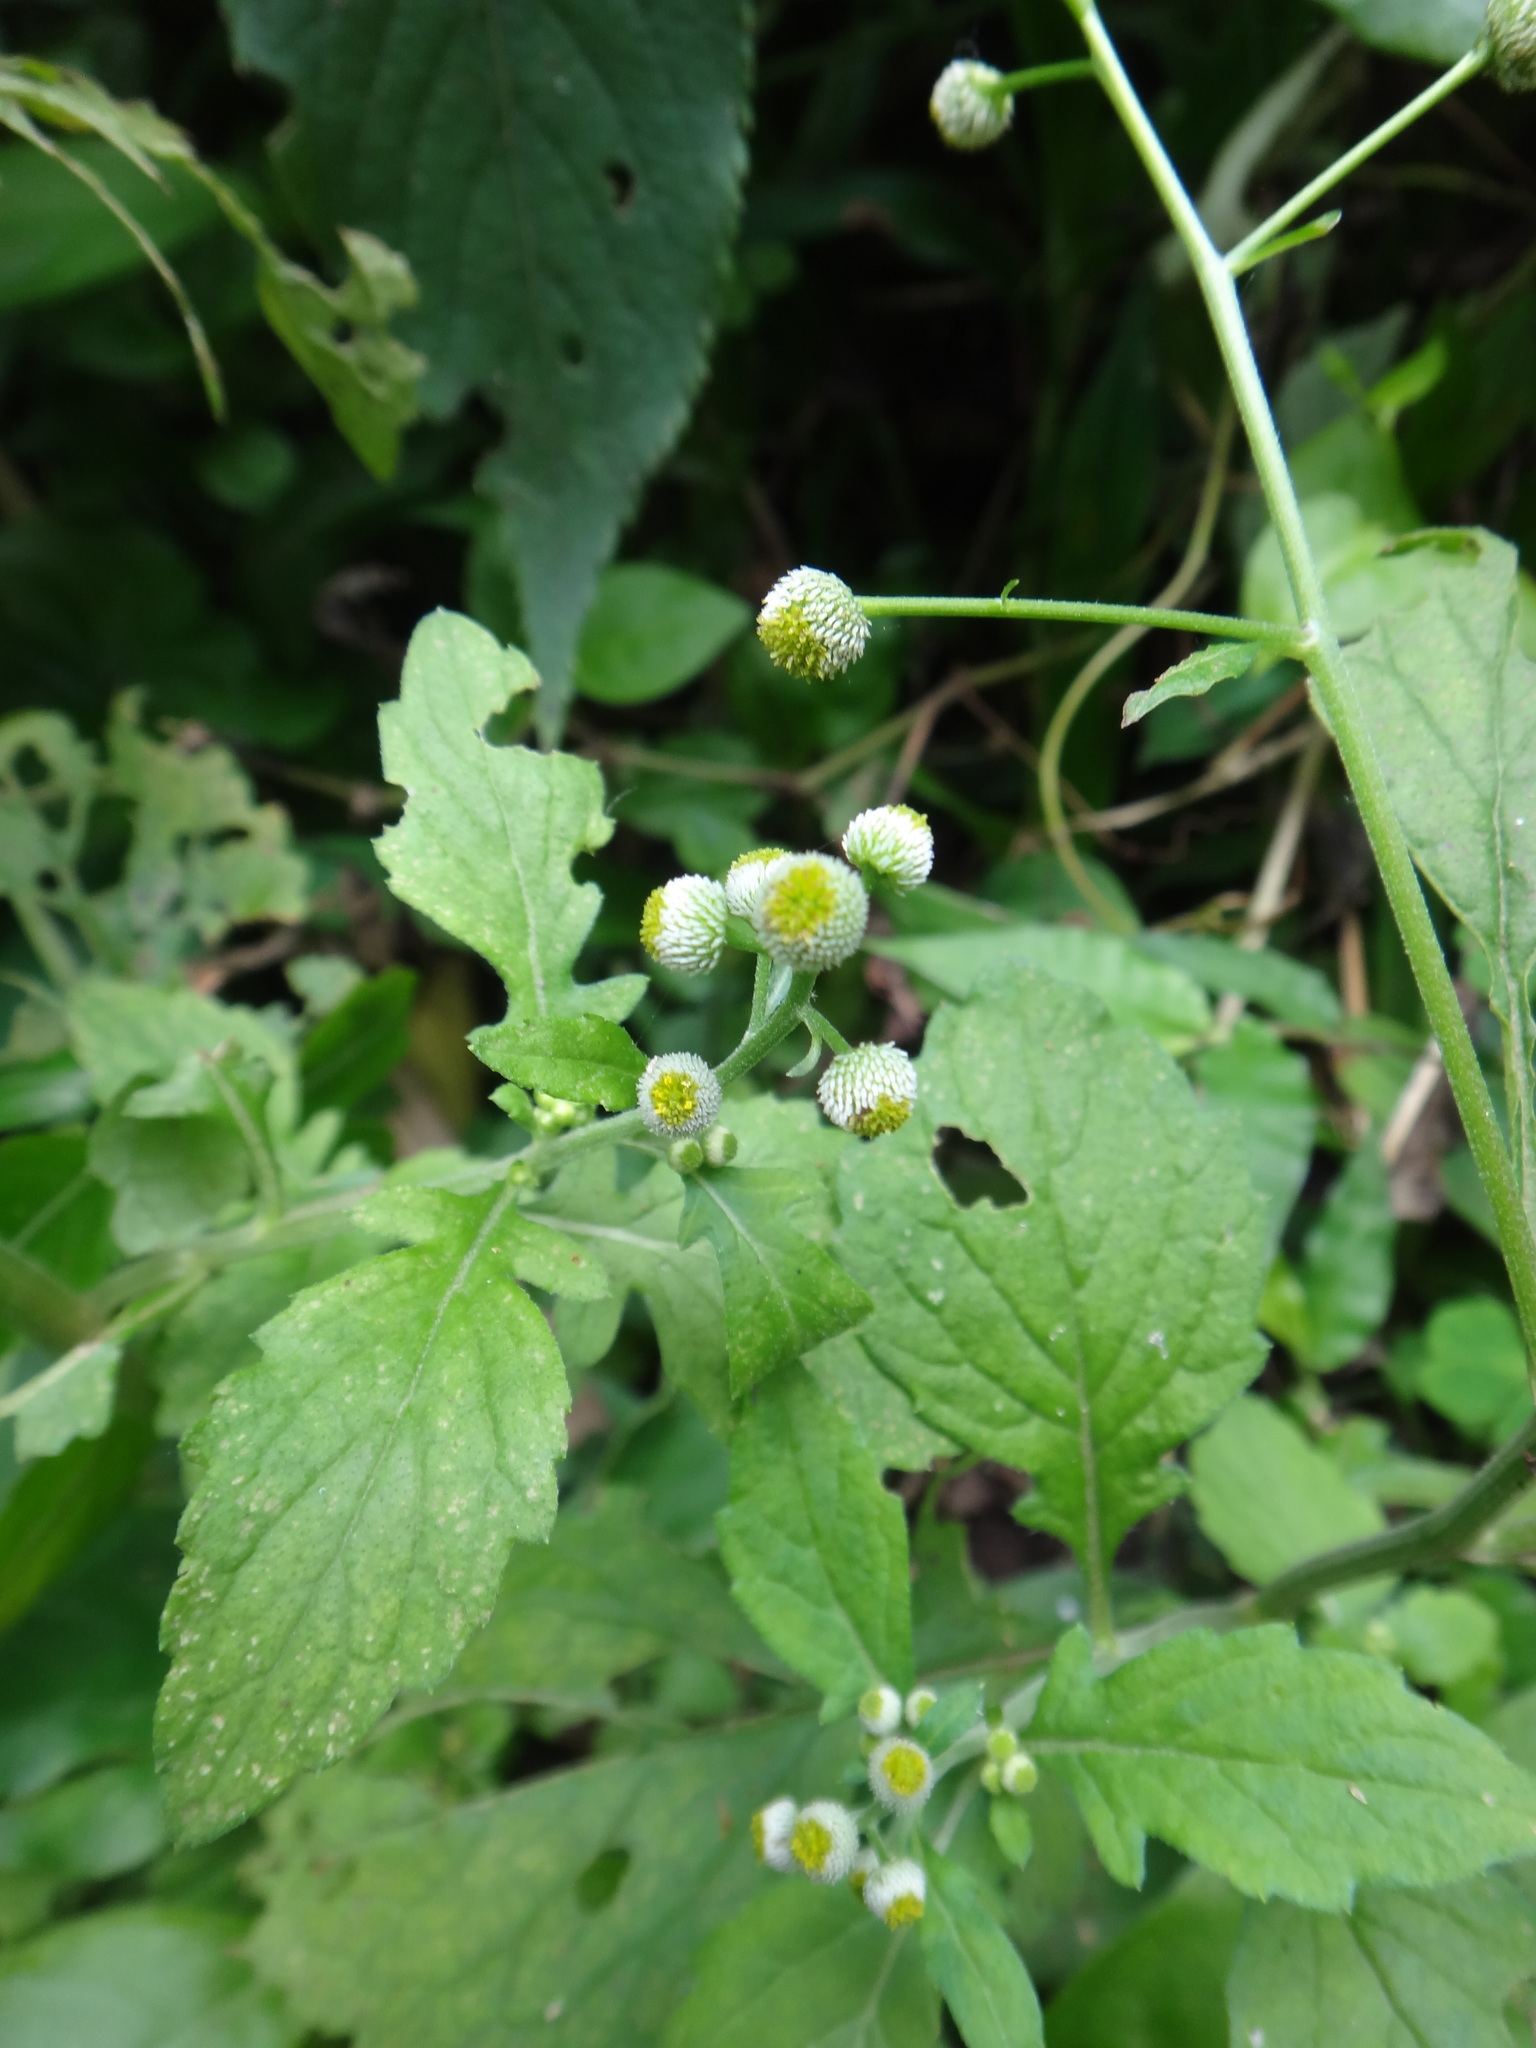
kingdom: Plantae
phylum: Tracheophyta
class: Magnoliopsida
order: Asterales
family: Asteraceae
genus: Dichrocephala
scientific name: Dichrocephala integrifolia
